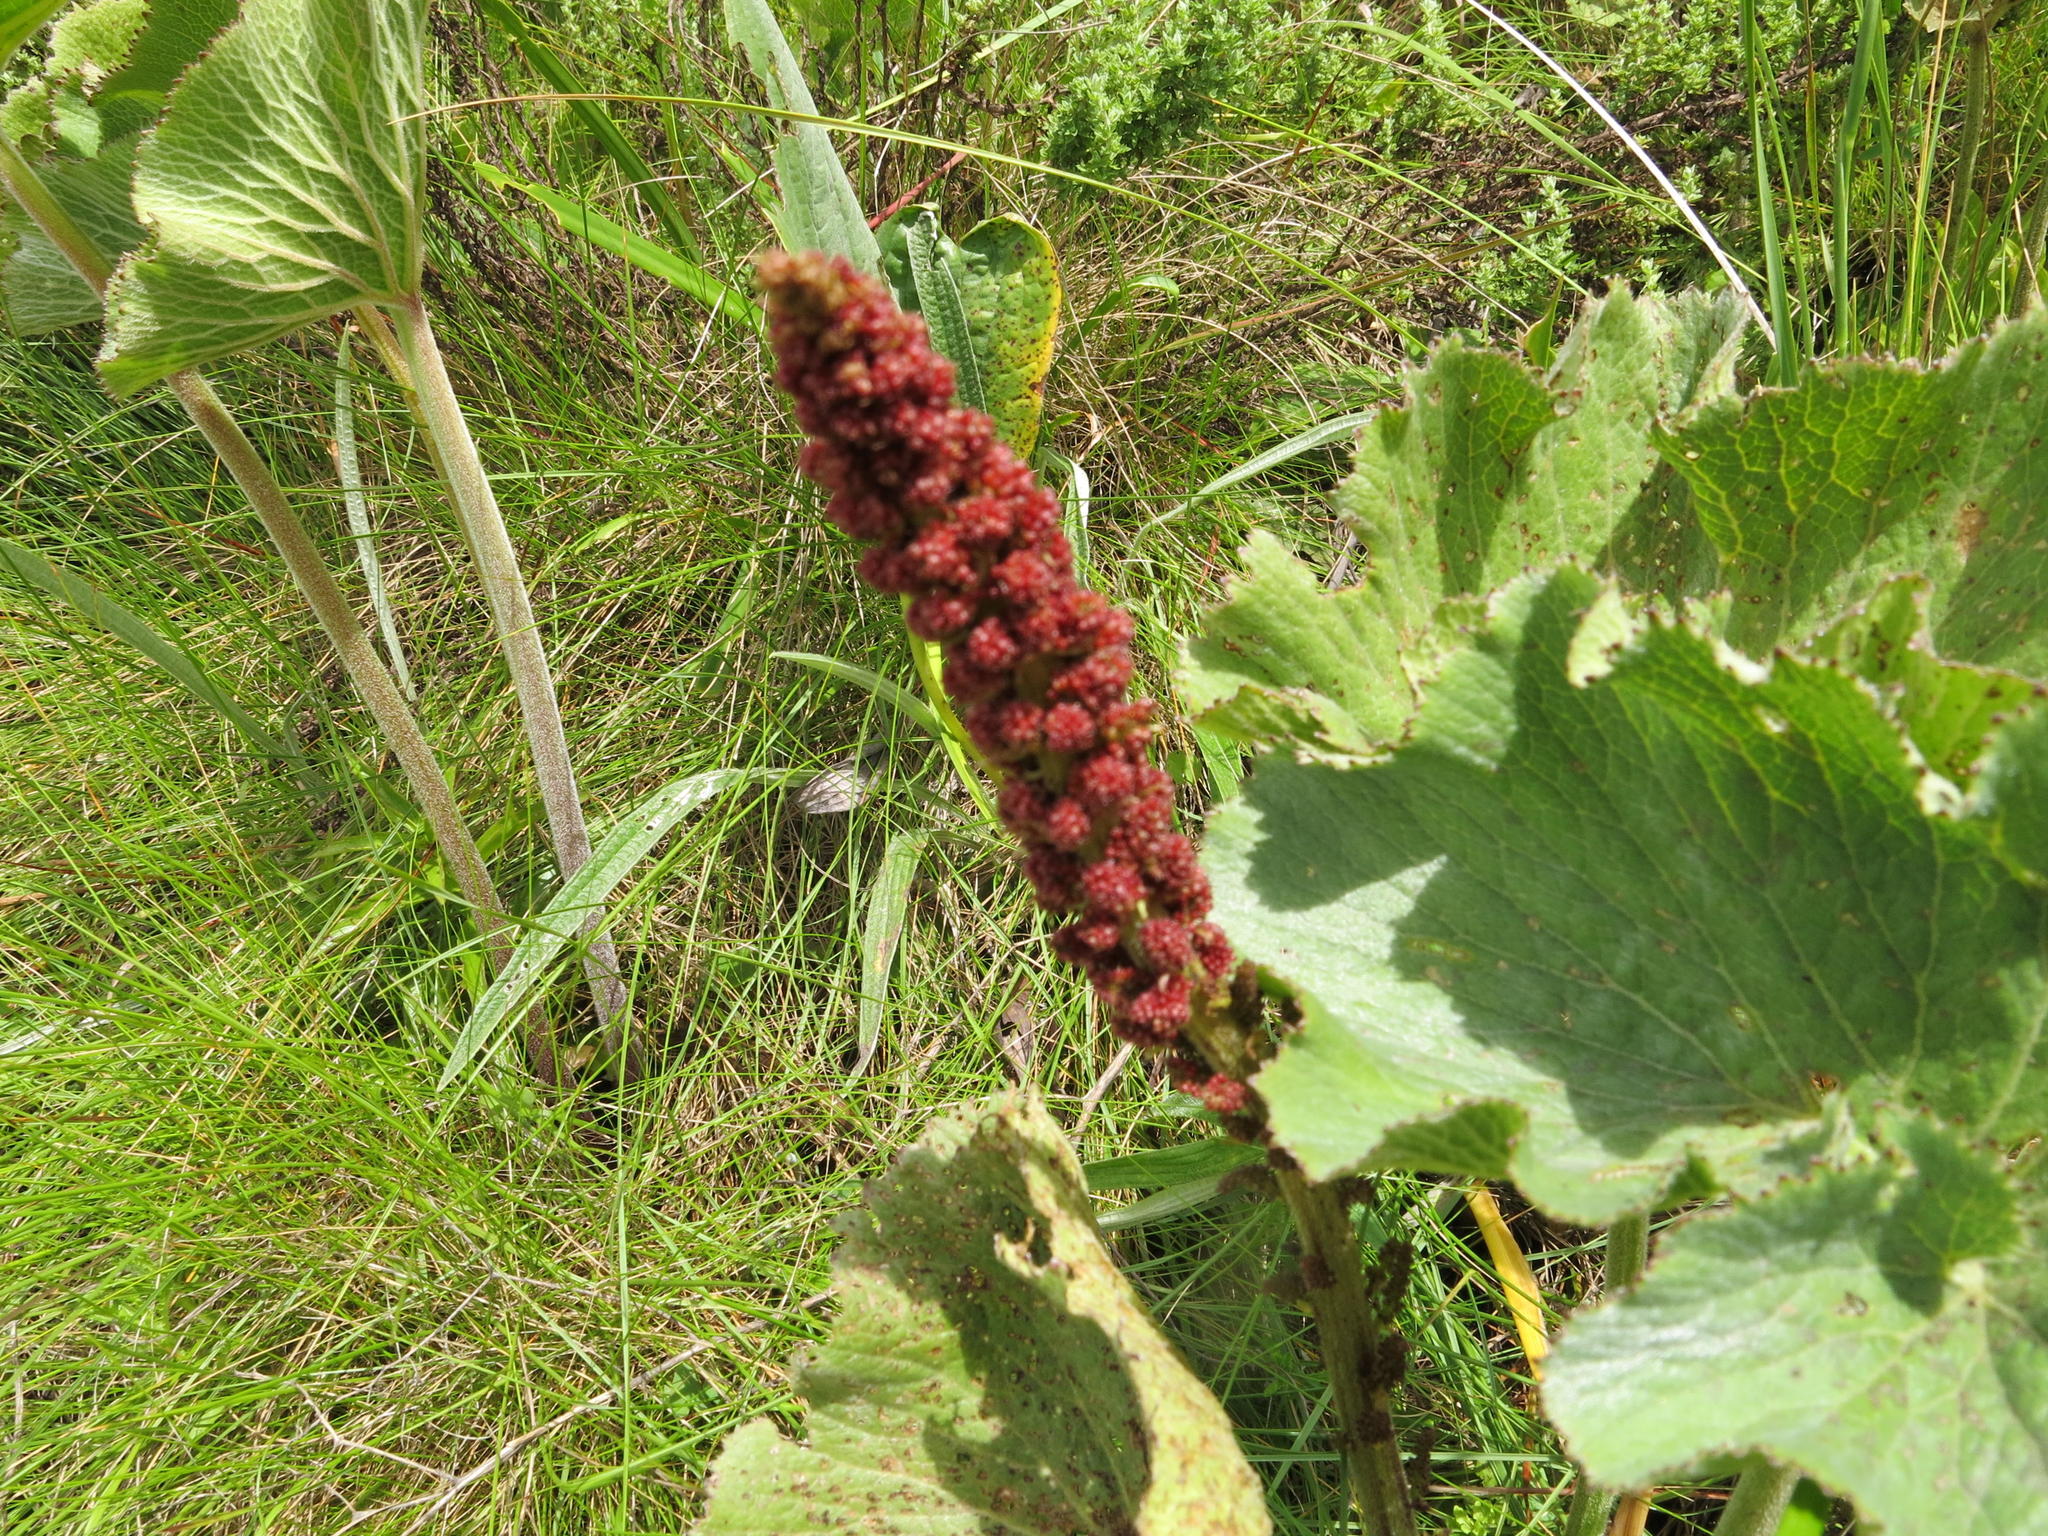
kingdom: Plantae
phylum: Tracheophyta
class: Magnoliopsida
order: Gunnerales
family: Gunneraceae
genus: Gunnera
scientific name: Gunnera perpensa
